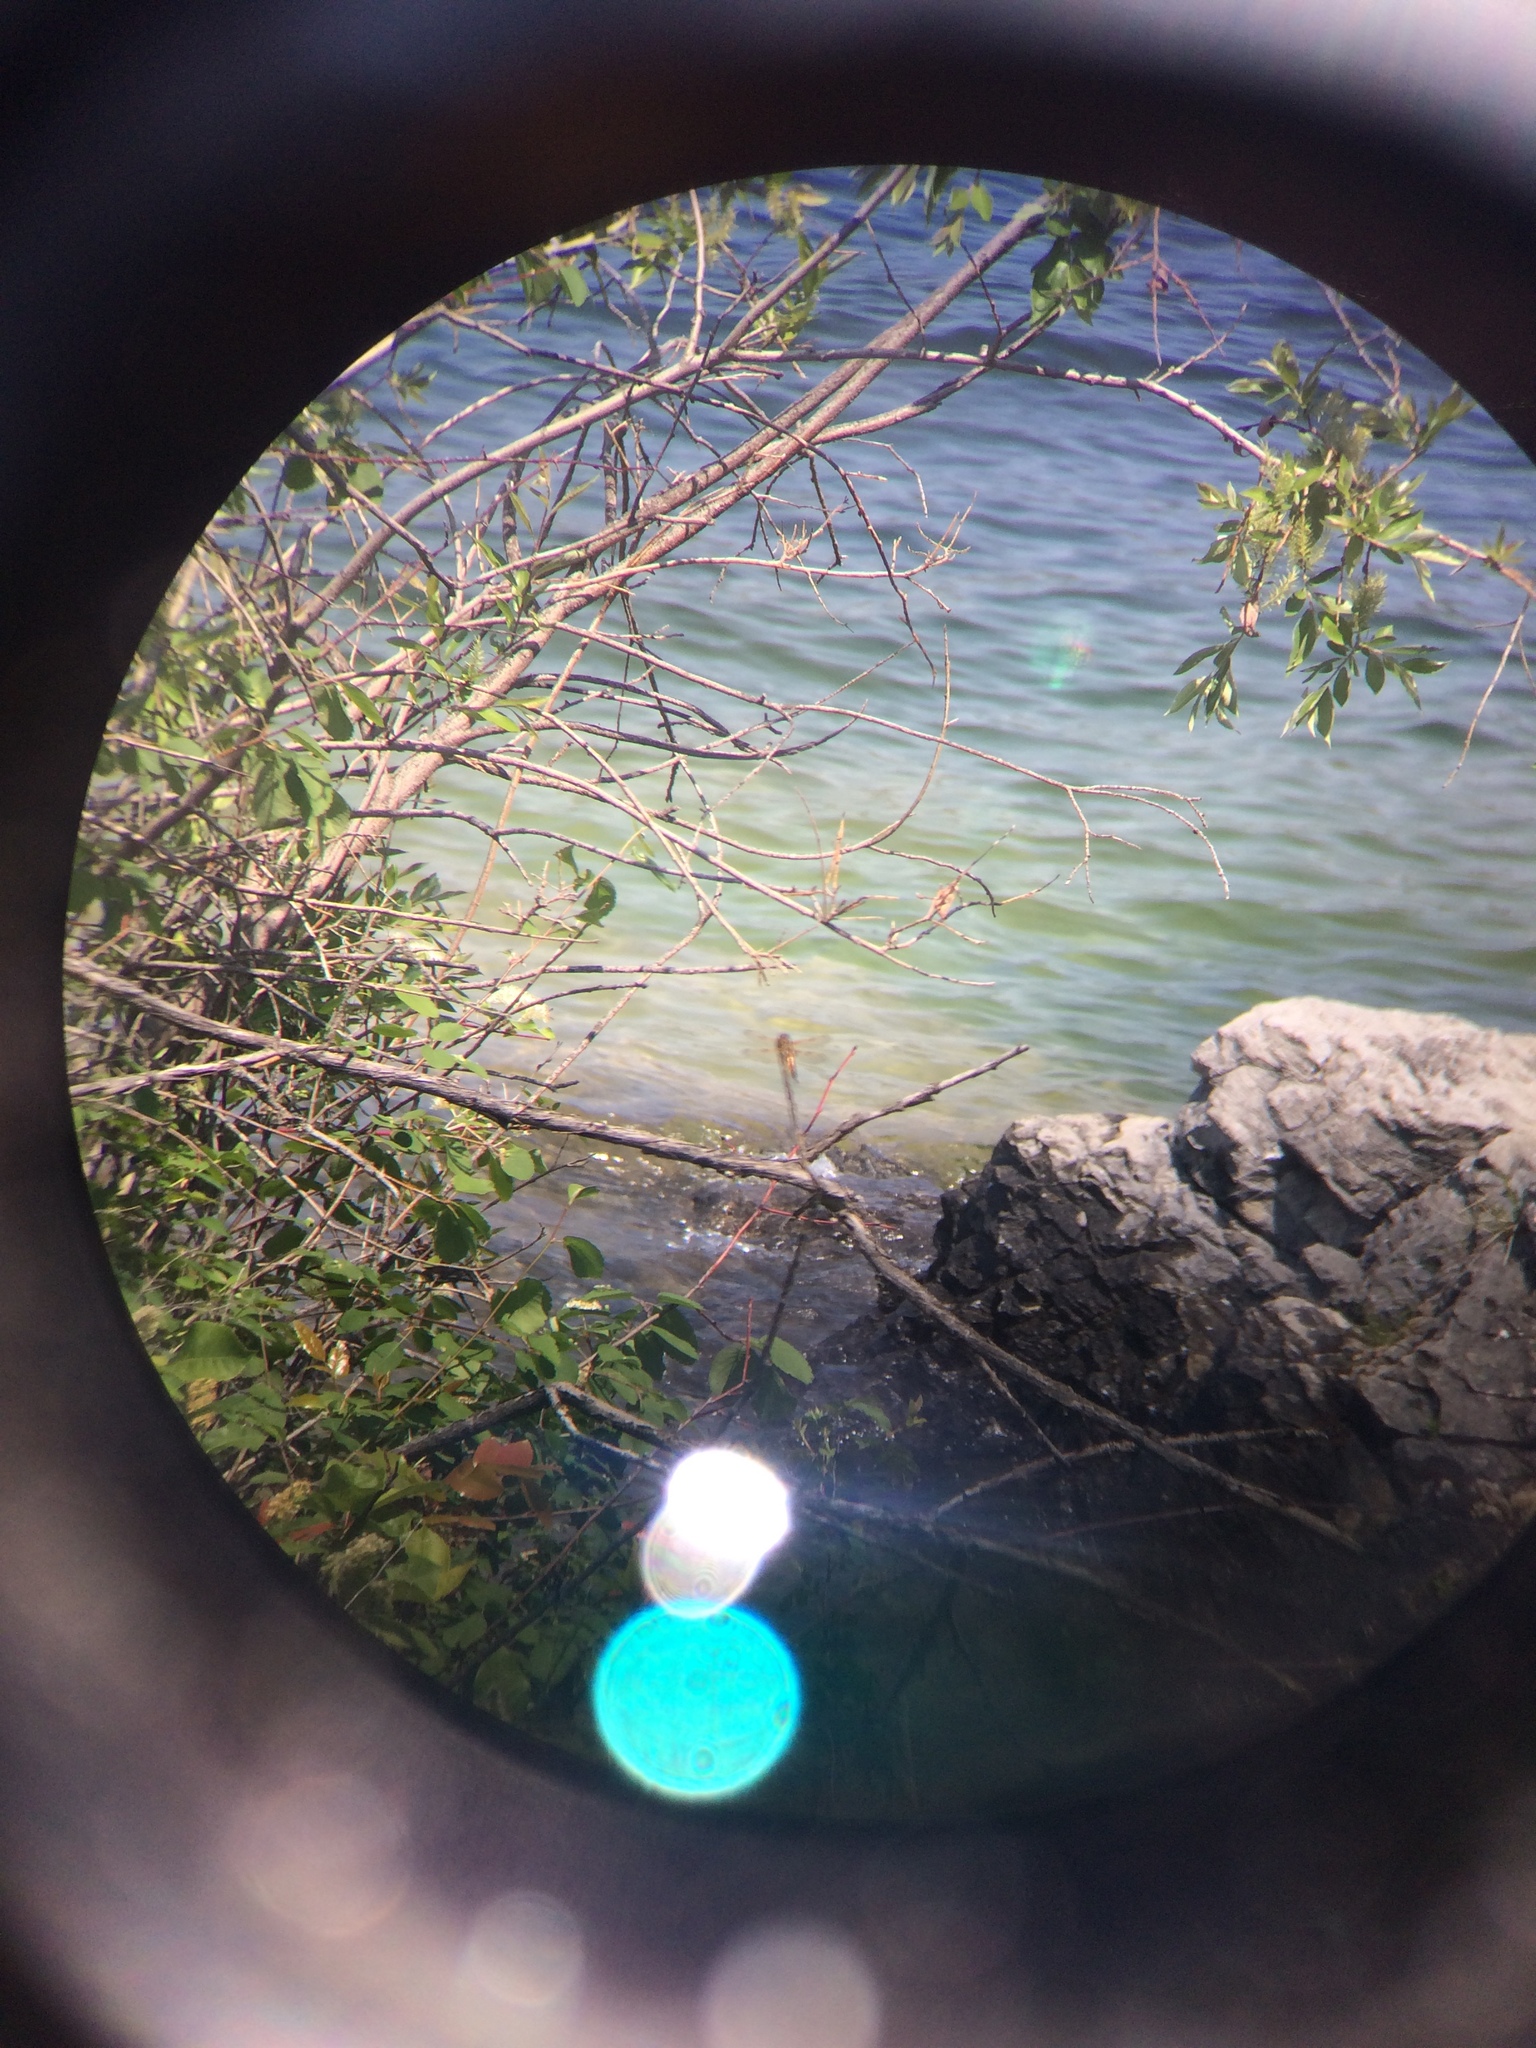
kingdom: Animalia
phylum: Arthropoda
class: Insecta
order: Odonata
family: Libellulidae
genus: Libellula
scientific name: Libellula quadrimaculata
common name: Four-spotted chaser
